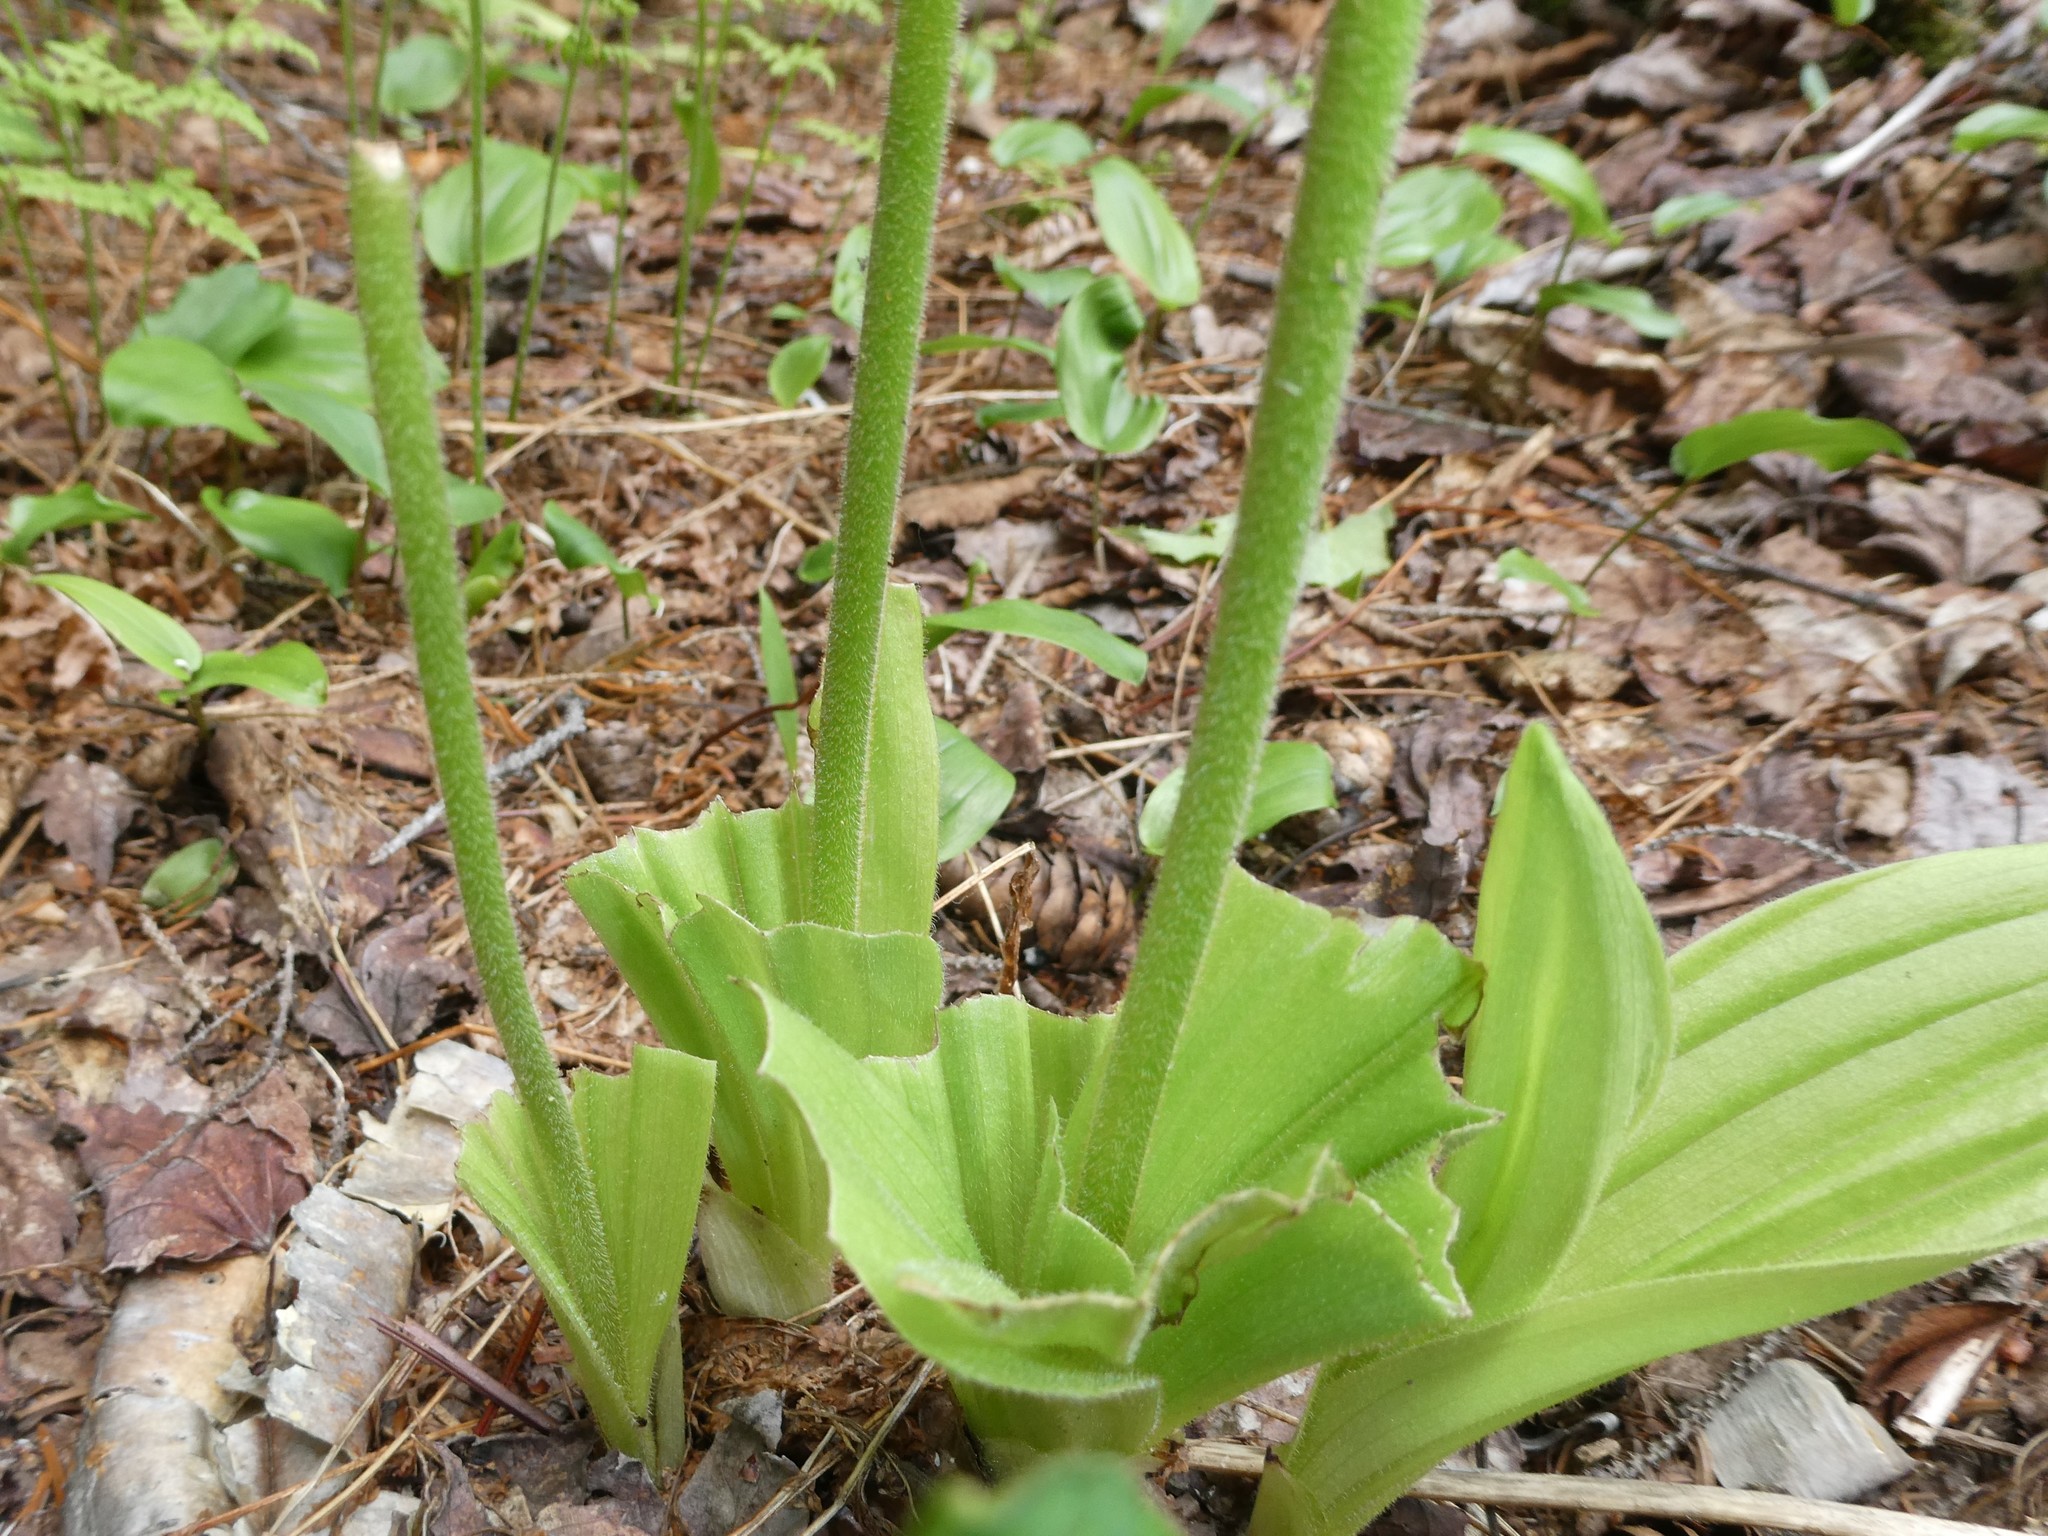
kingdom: Plantae
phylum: Tracheophyta
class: Liliopsida
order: Asparagales
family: Orchidaceae
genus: Cypripedium
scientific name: Cypripedium acaule
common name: Pink lady's-slipper
